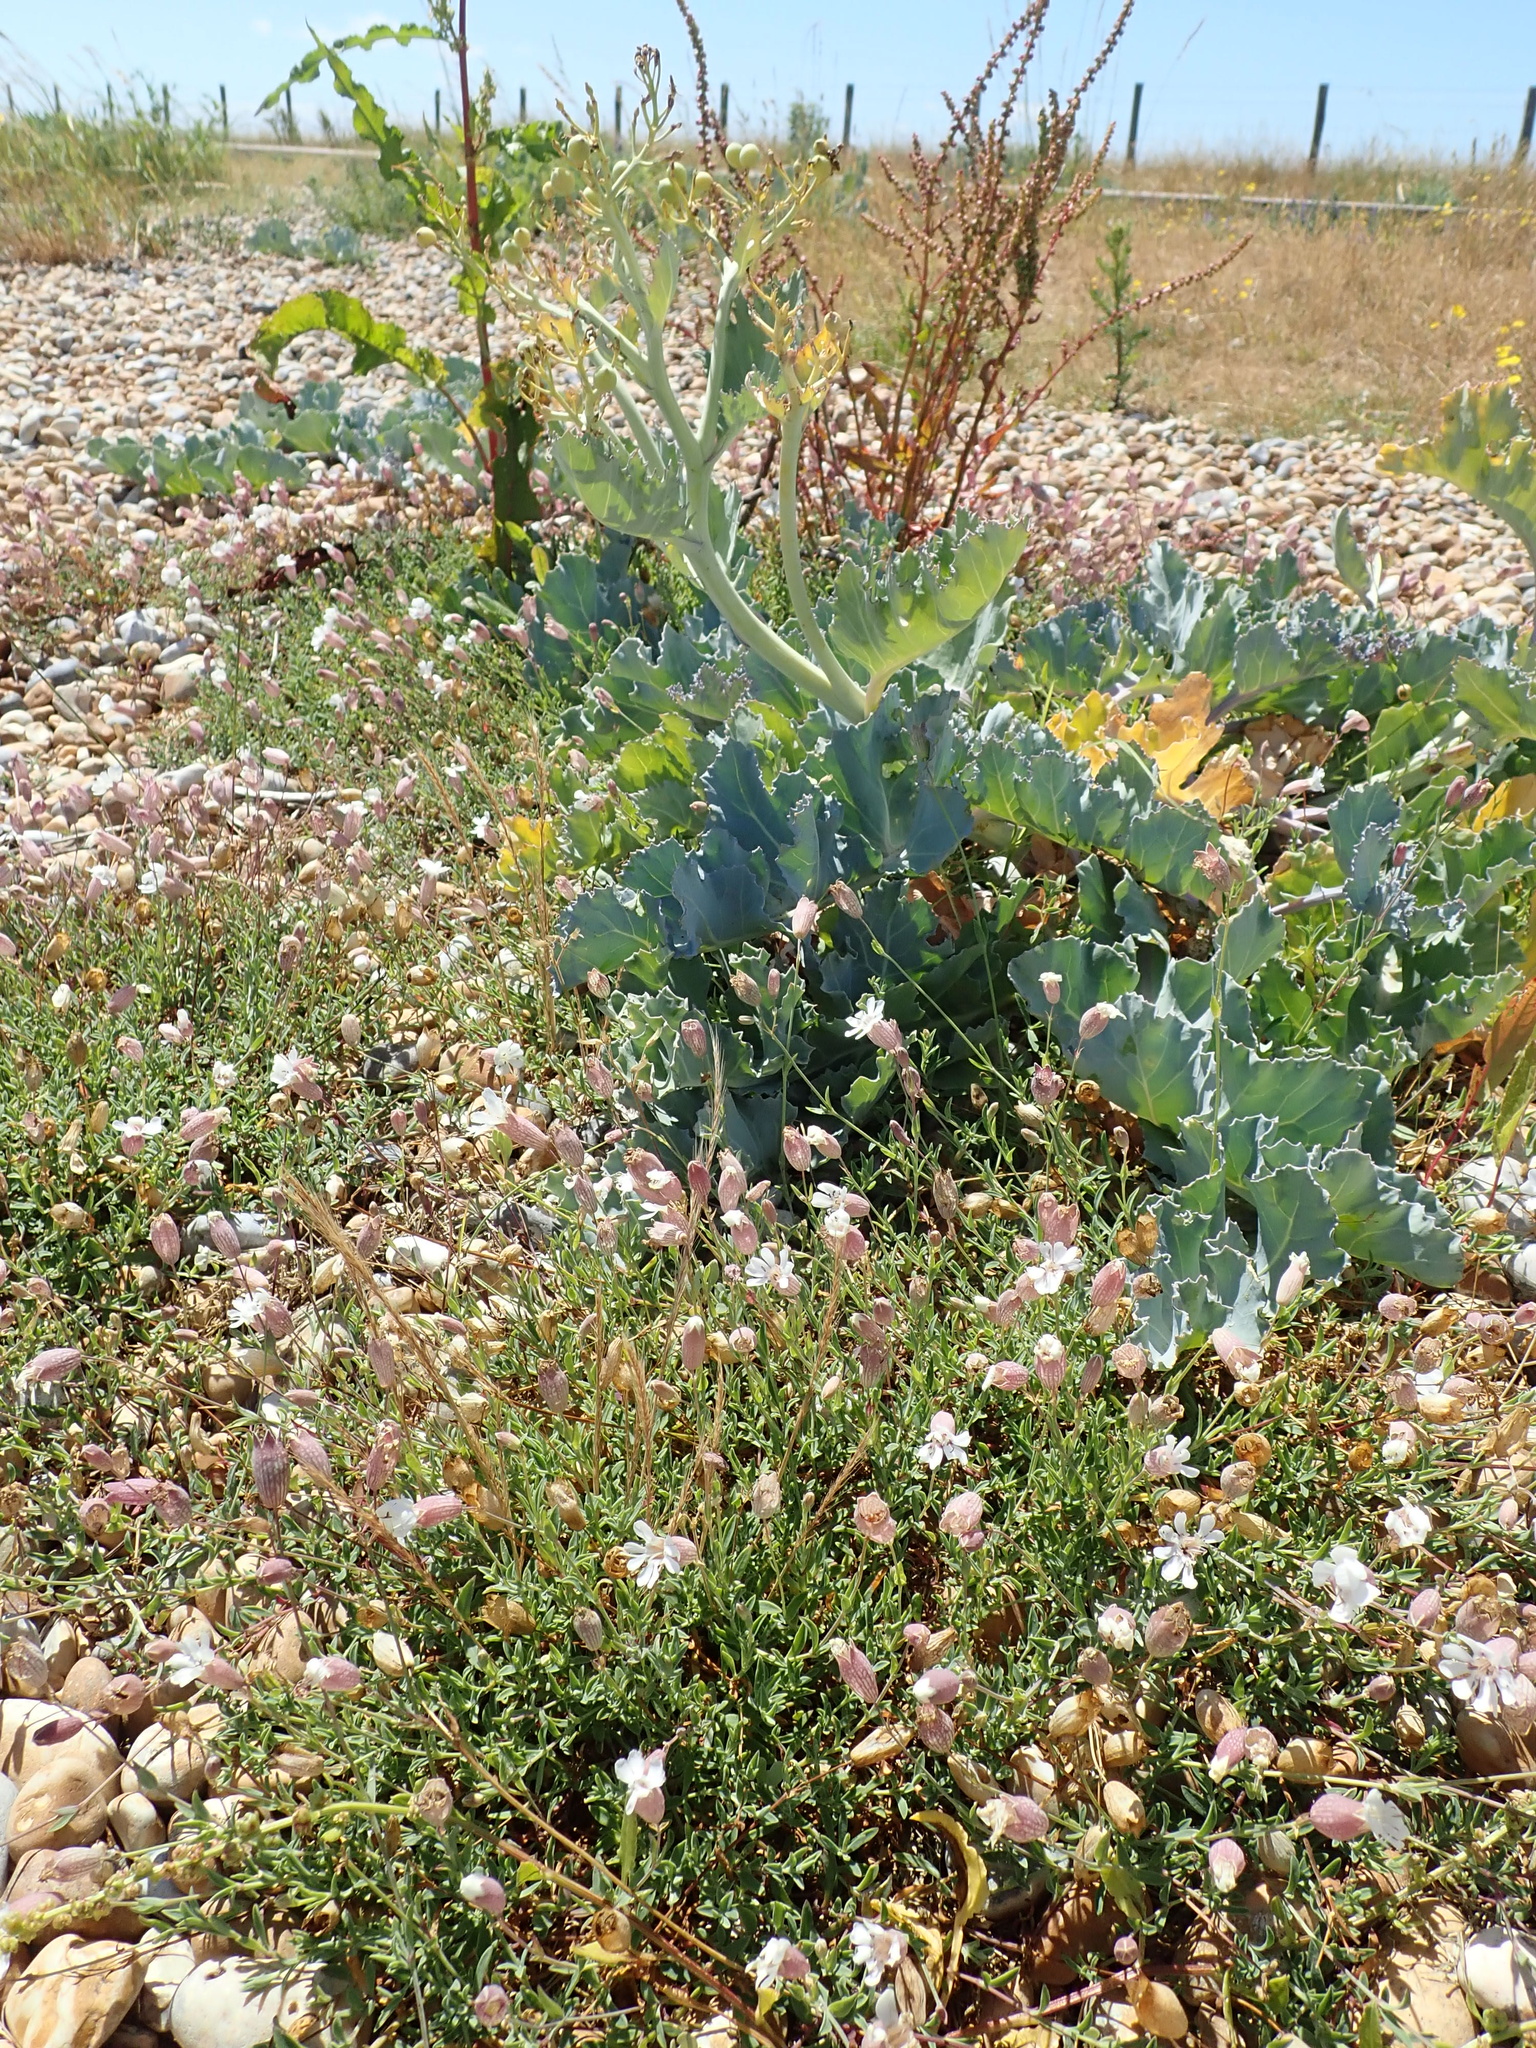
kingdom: Plantae
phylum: Tracheophyta
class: Magnoliopsida
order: Caryophyllales
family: Caryophyllaceae
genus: Silene
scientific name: Silene uniflora
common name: Sea campion
